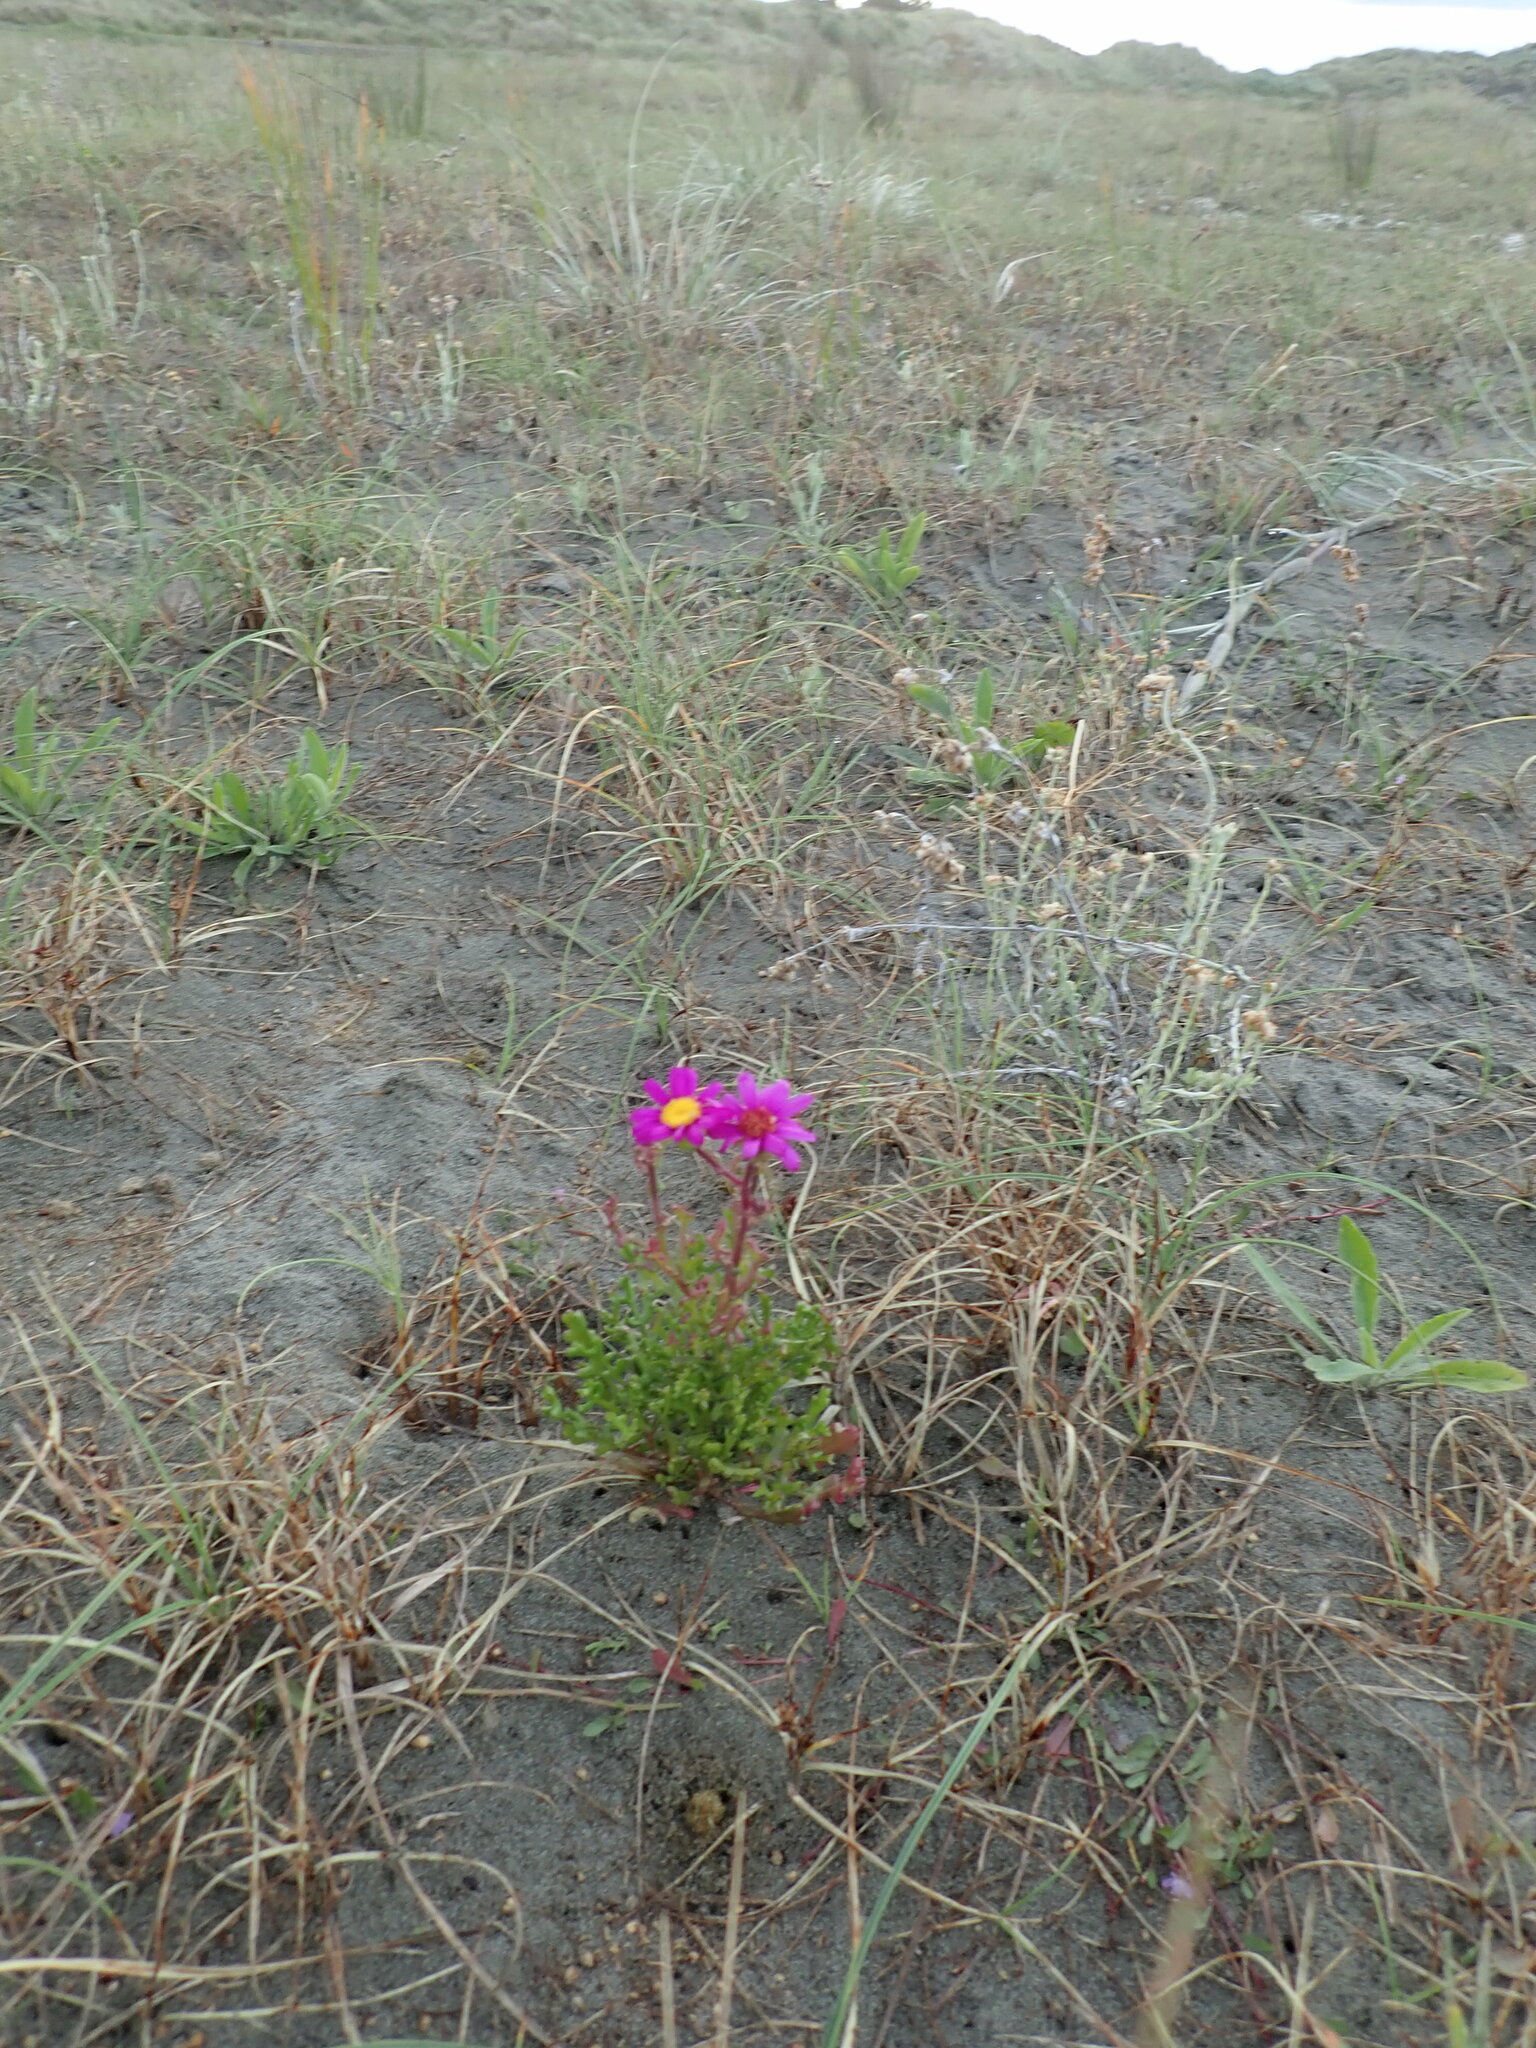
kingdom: Plantae
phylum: Tracheophyta
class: Magnoliopsida
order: Asterales
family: Asteraceae
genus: Senecio
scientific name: Senecio elegans
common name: Purple groundsel
